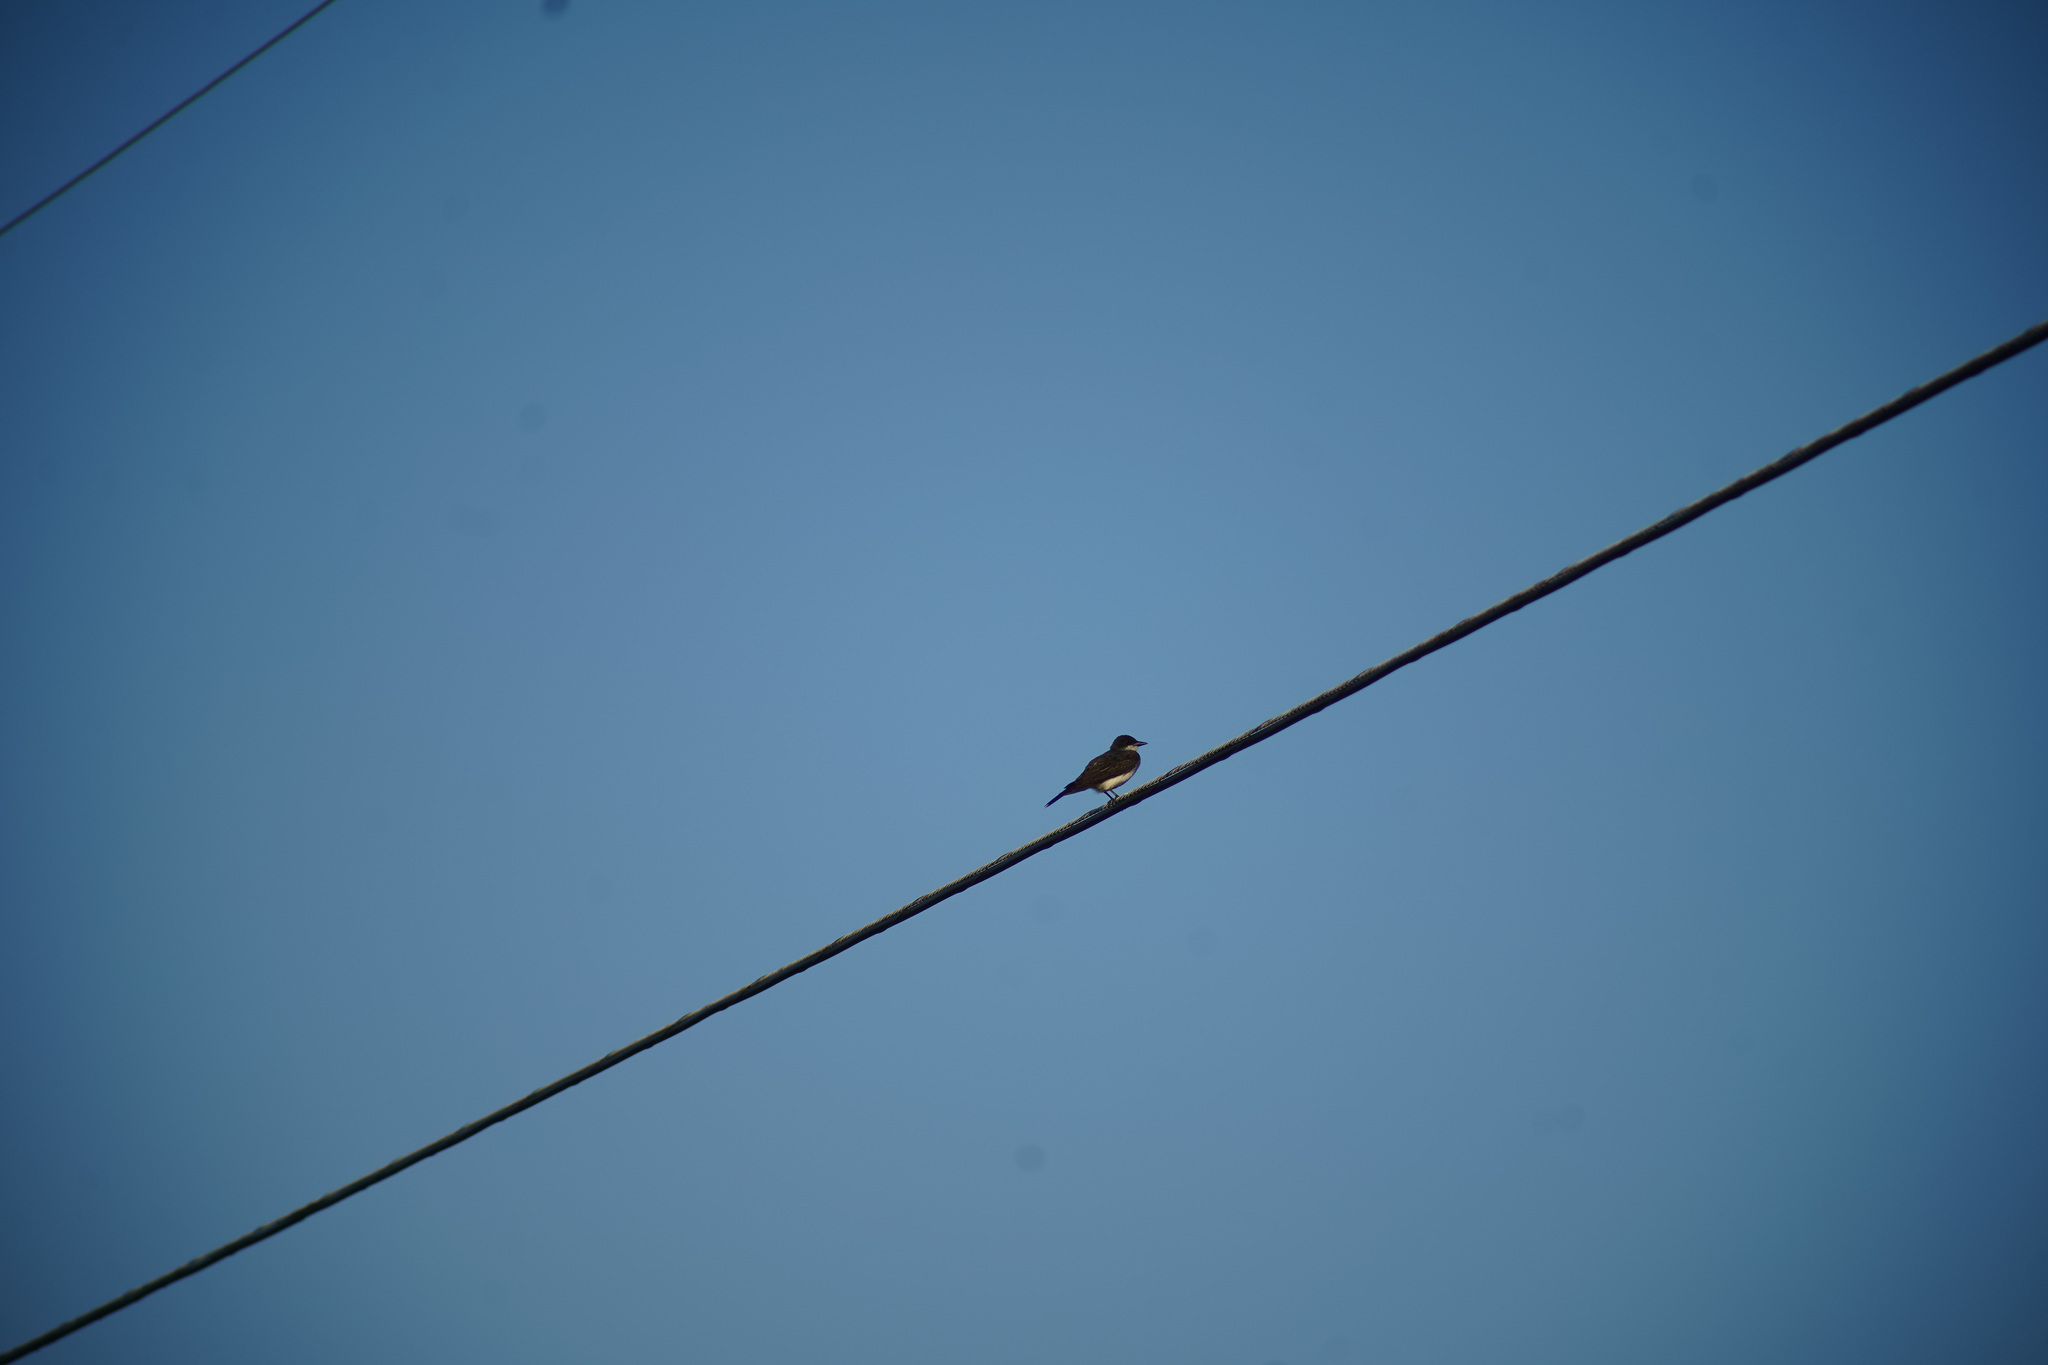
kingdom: Animalia
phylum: Chordata
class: Aves
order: Passeriformes
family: Tyrannidae
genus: Tyrannus
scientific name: Tyrannus tyrannus
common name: Eastern kingbird
